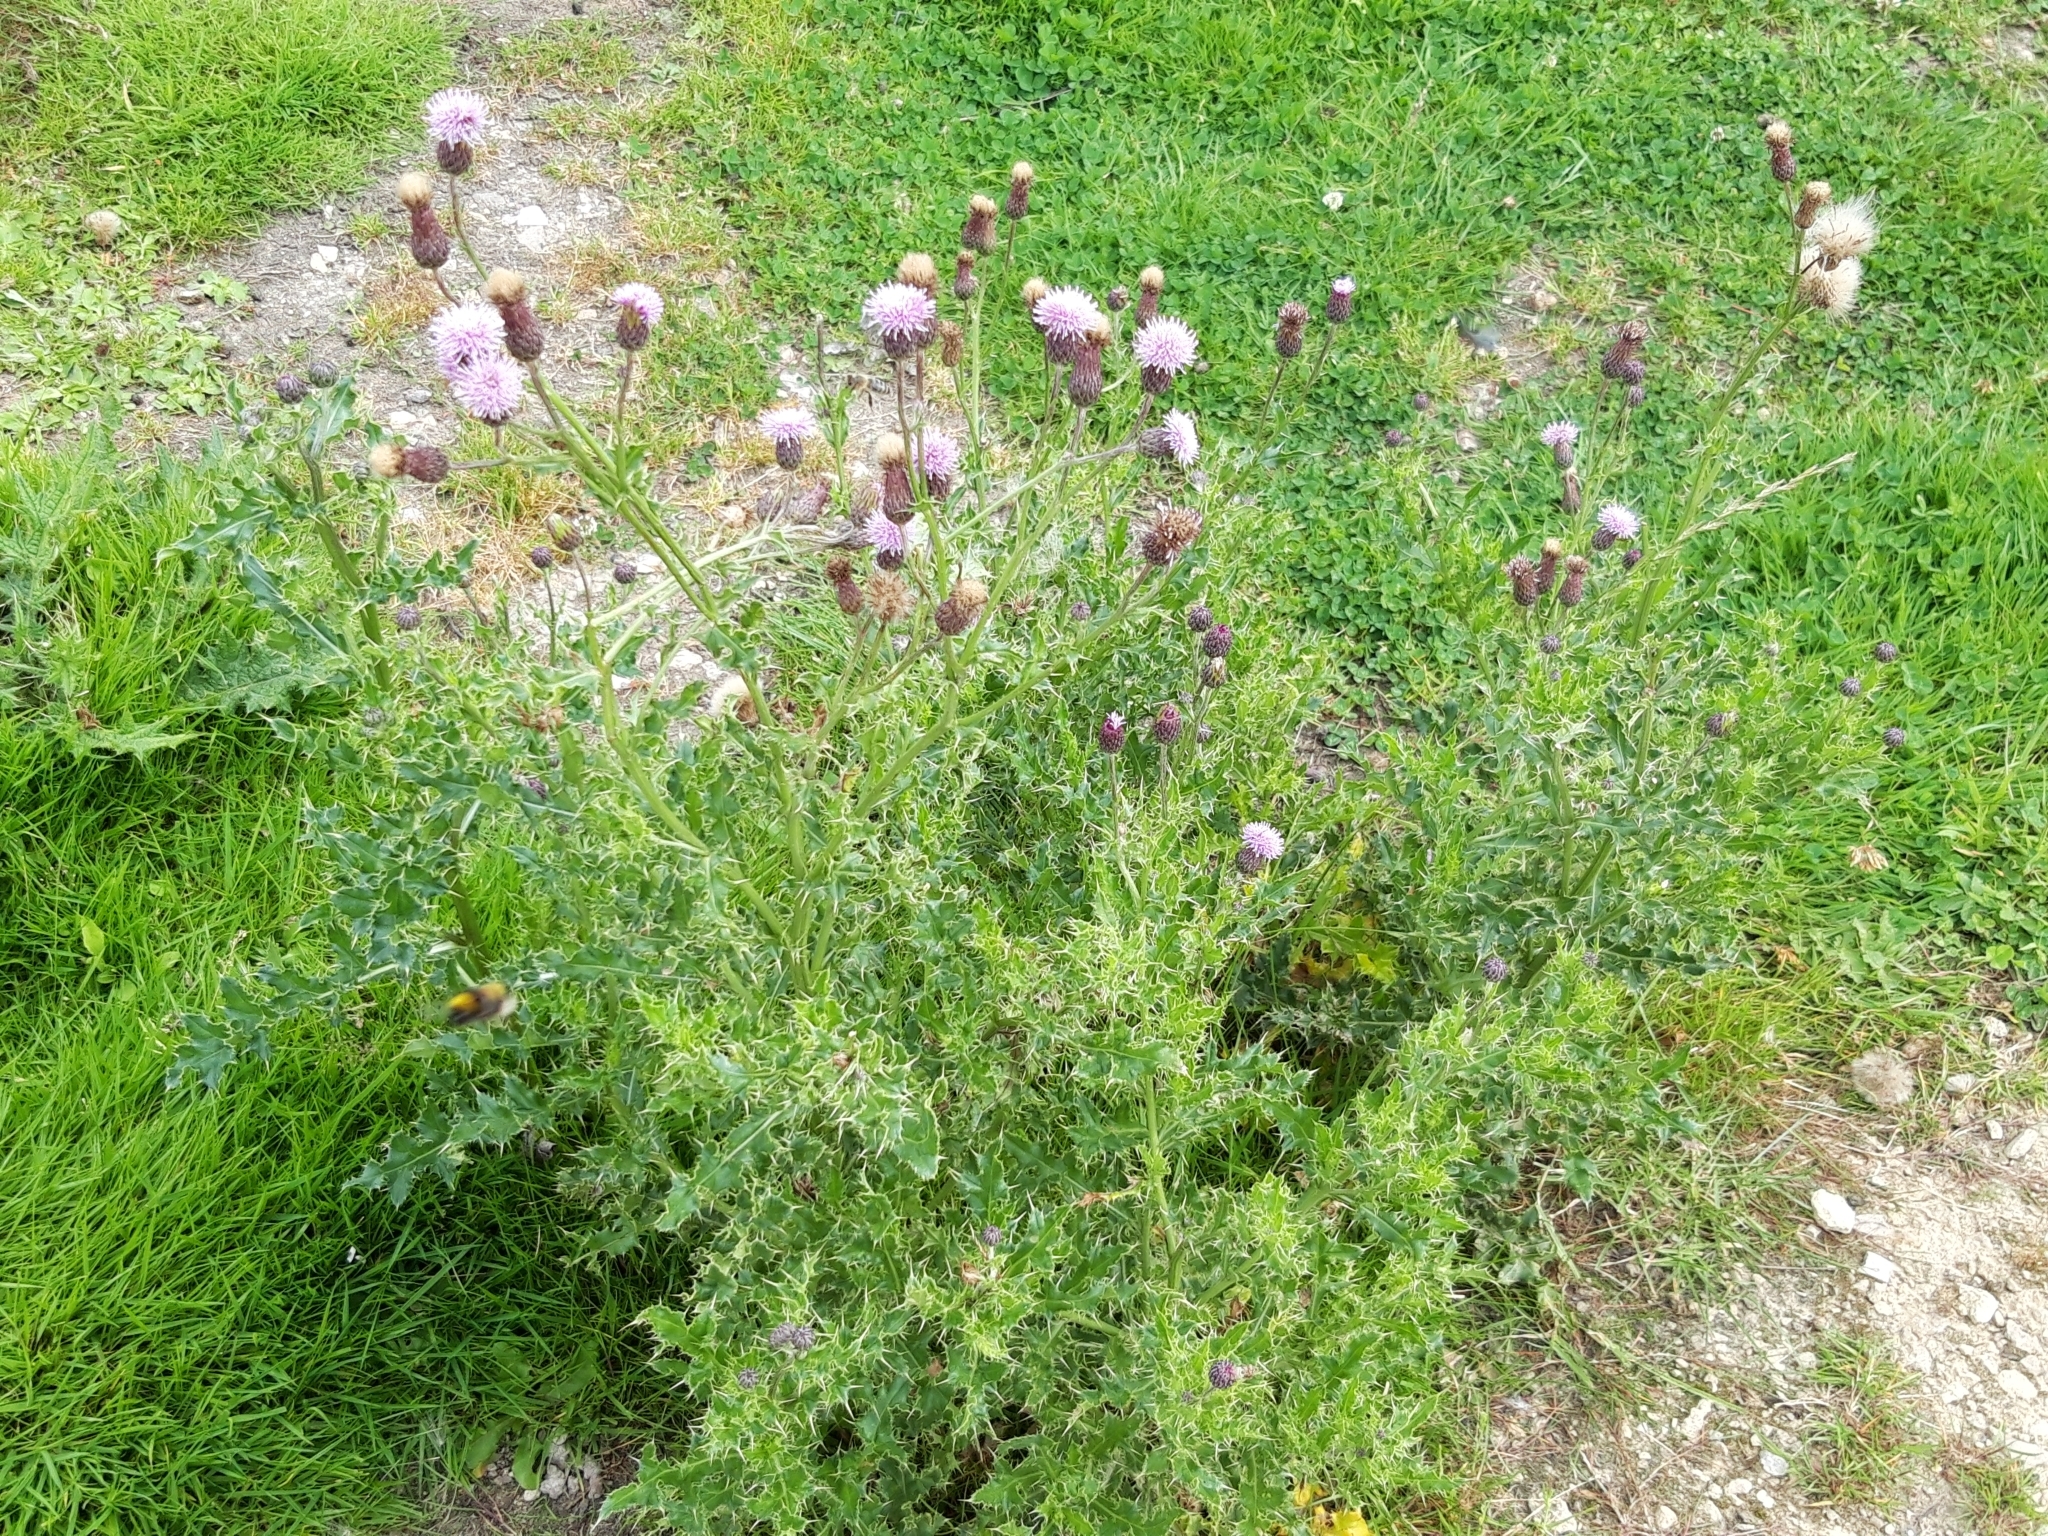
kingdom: Plantae
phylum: Tracheophyta
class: Magnoliopsida
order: Asterales
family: Asteraceae
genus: Cirsium
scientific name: Cirsium arvense
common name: Creeping thistle
